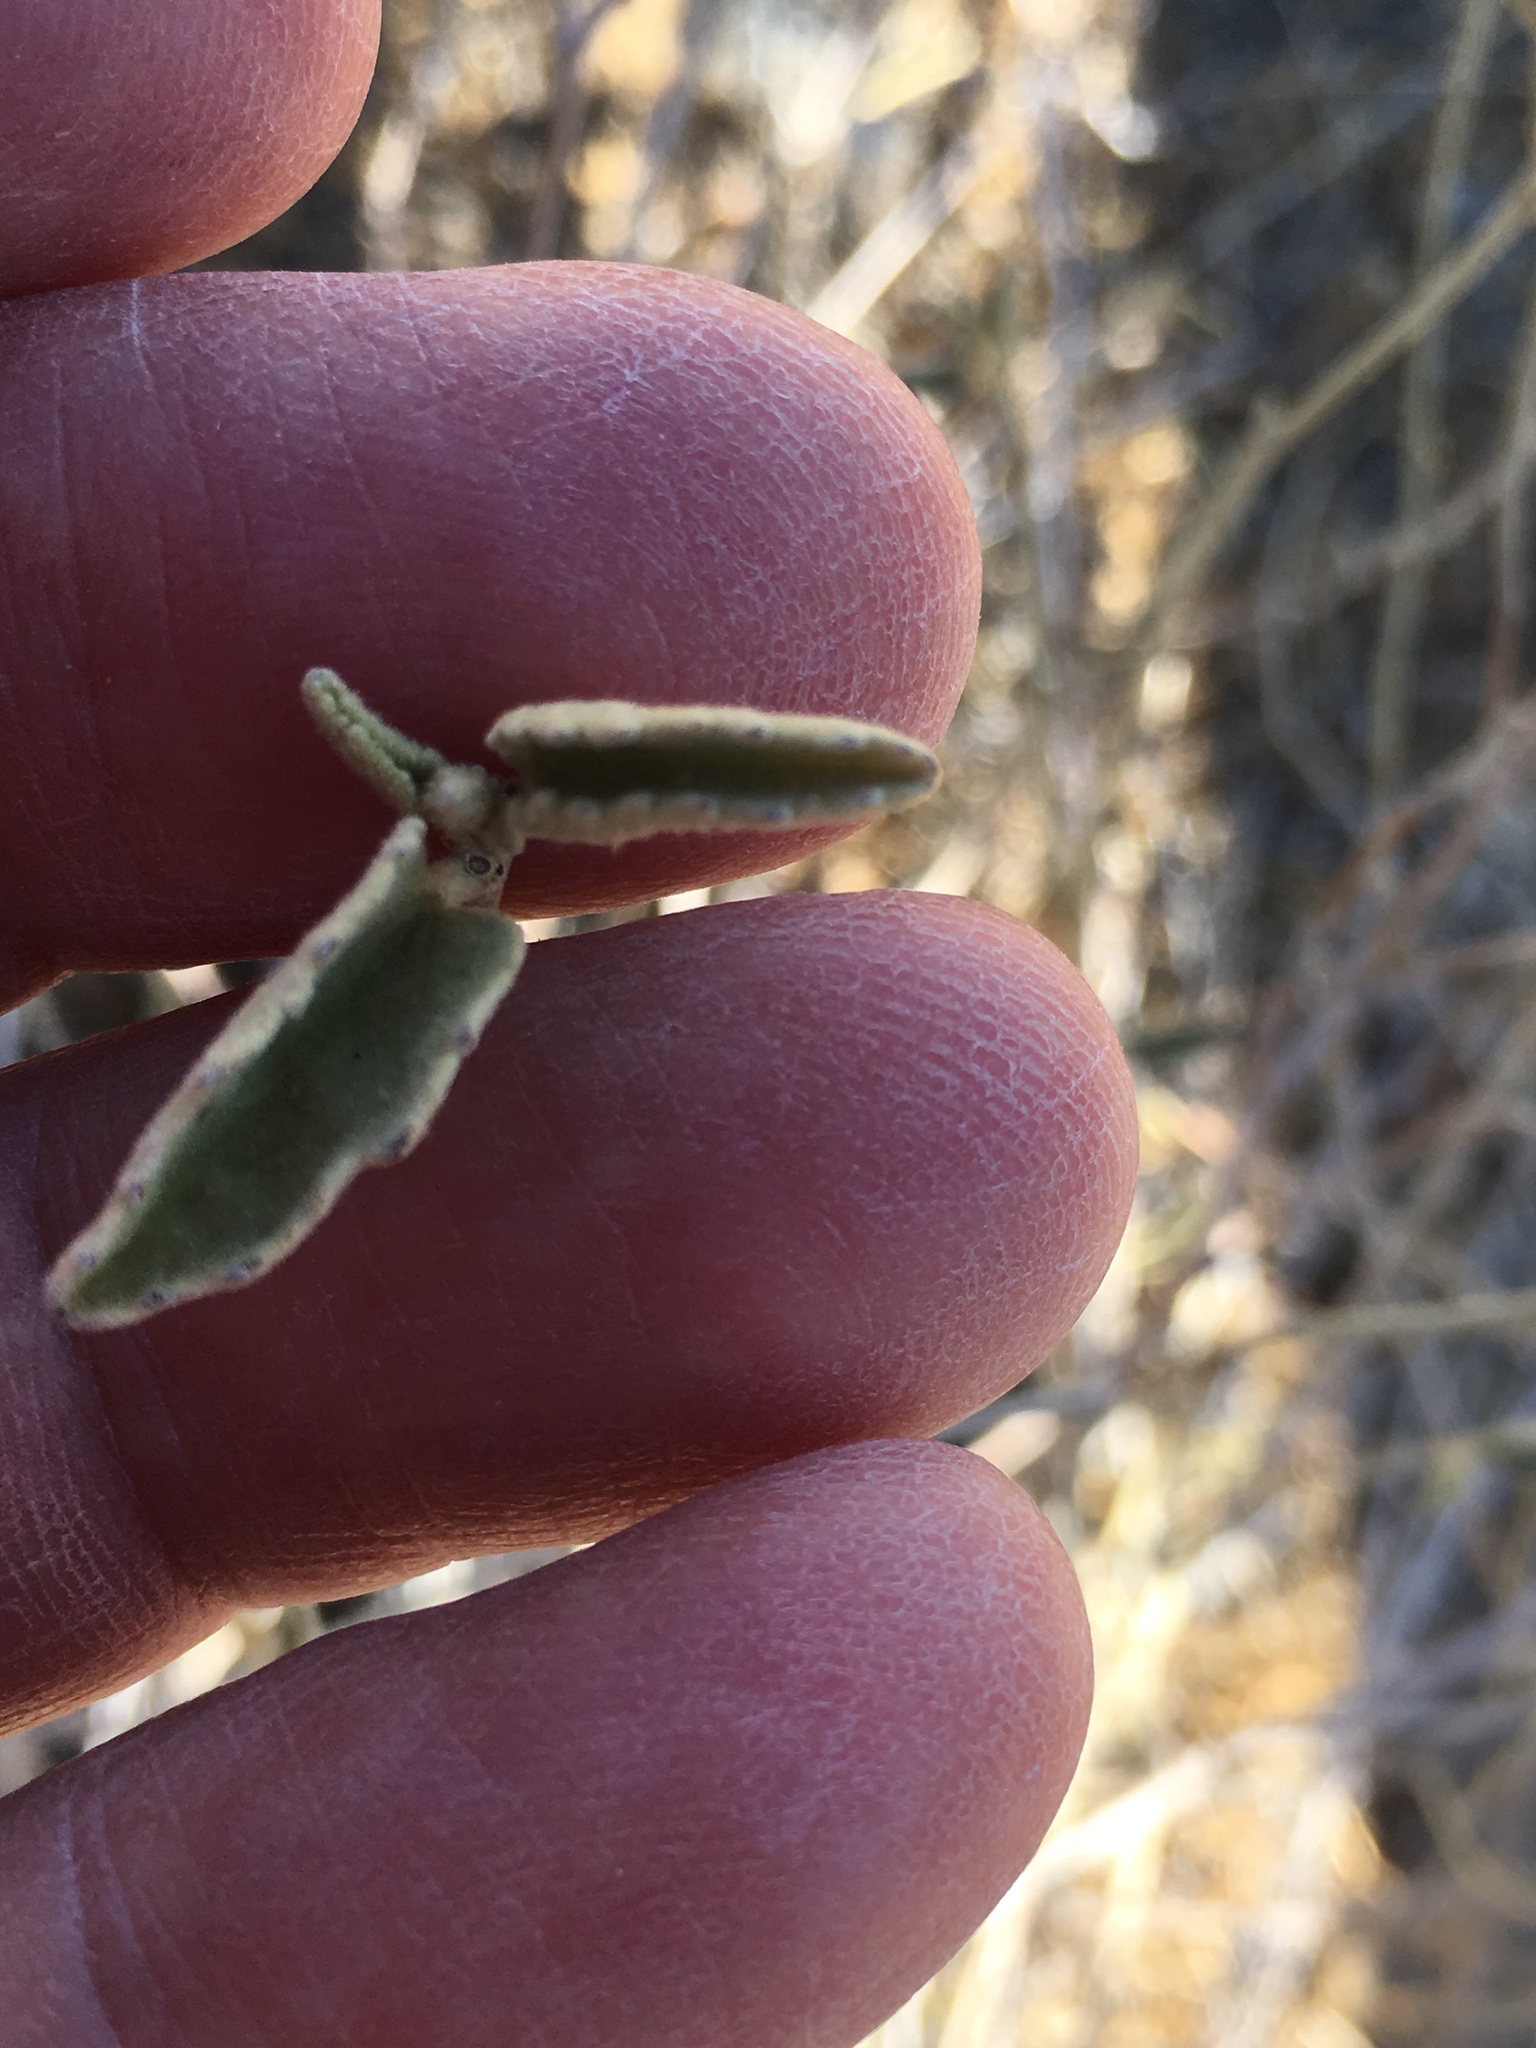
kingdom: Plantae
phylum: Tracheophyta
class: Magnoliopsida
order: Malvales
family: Malvaceae
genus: Hibiscus
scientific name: Hibiscus denudatus
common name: Paleface
